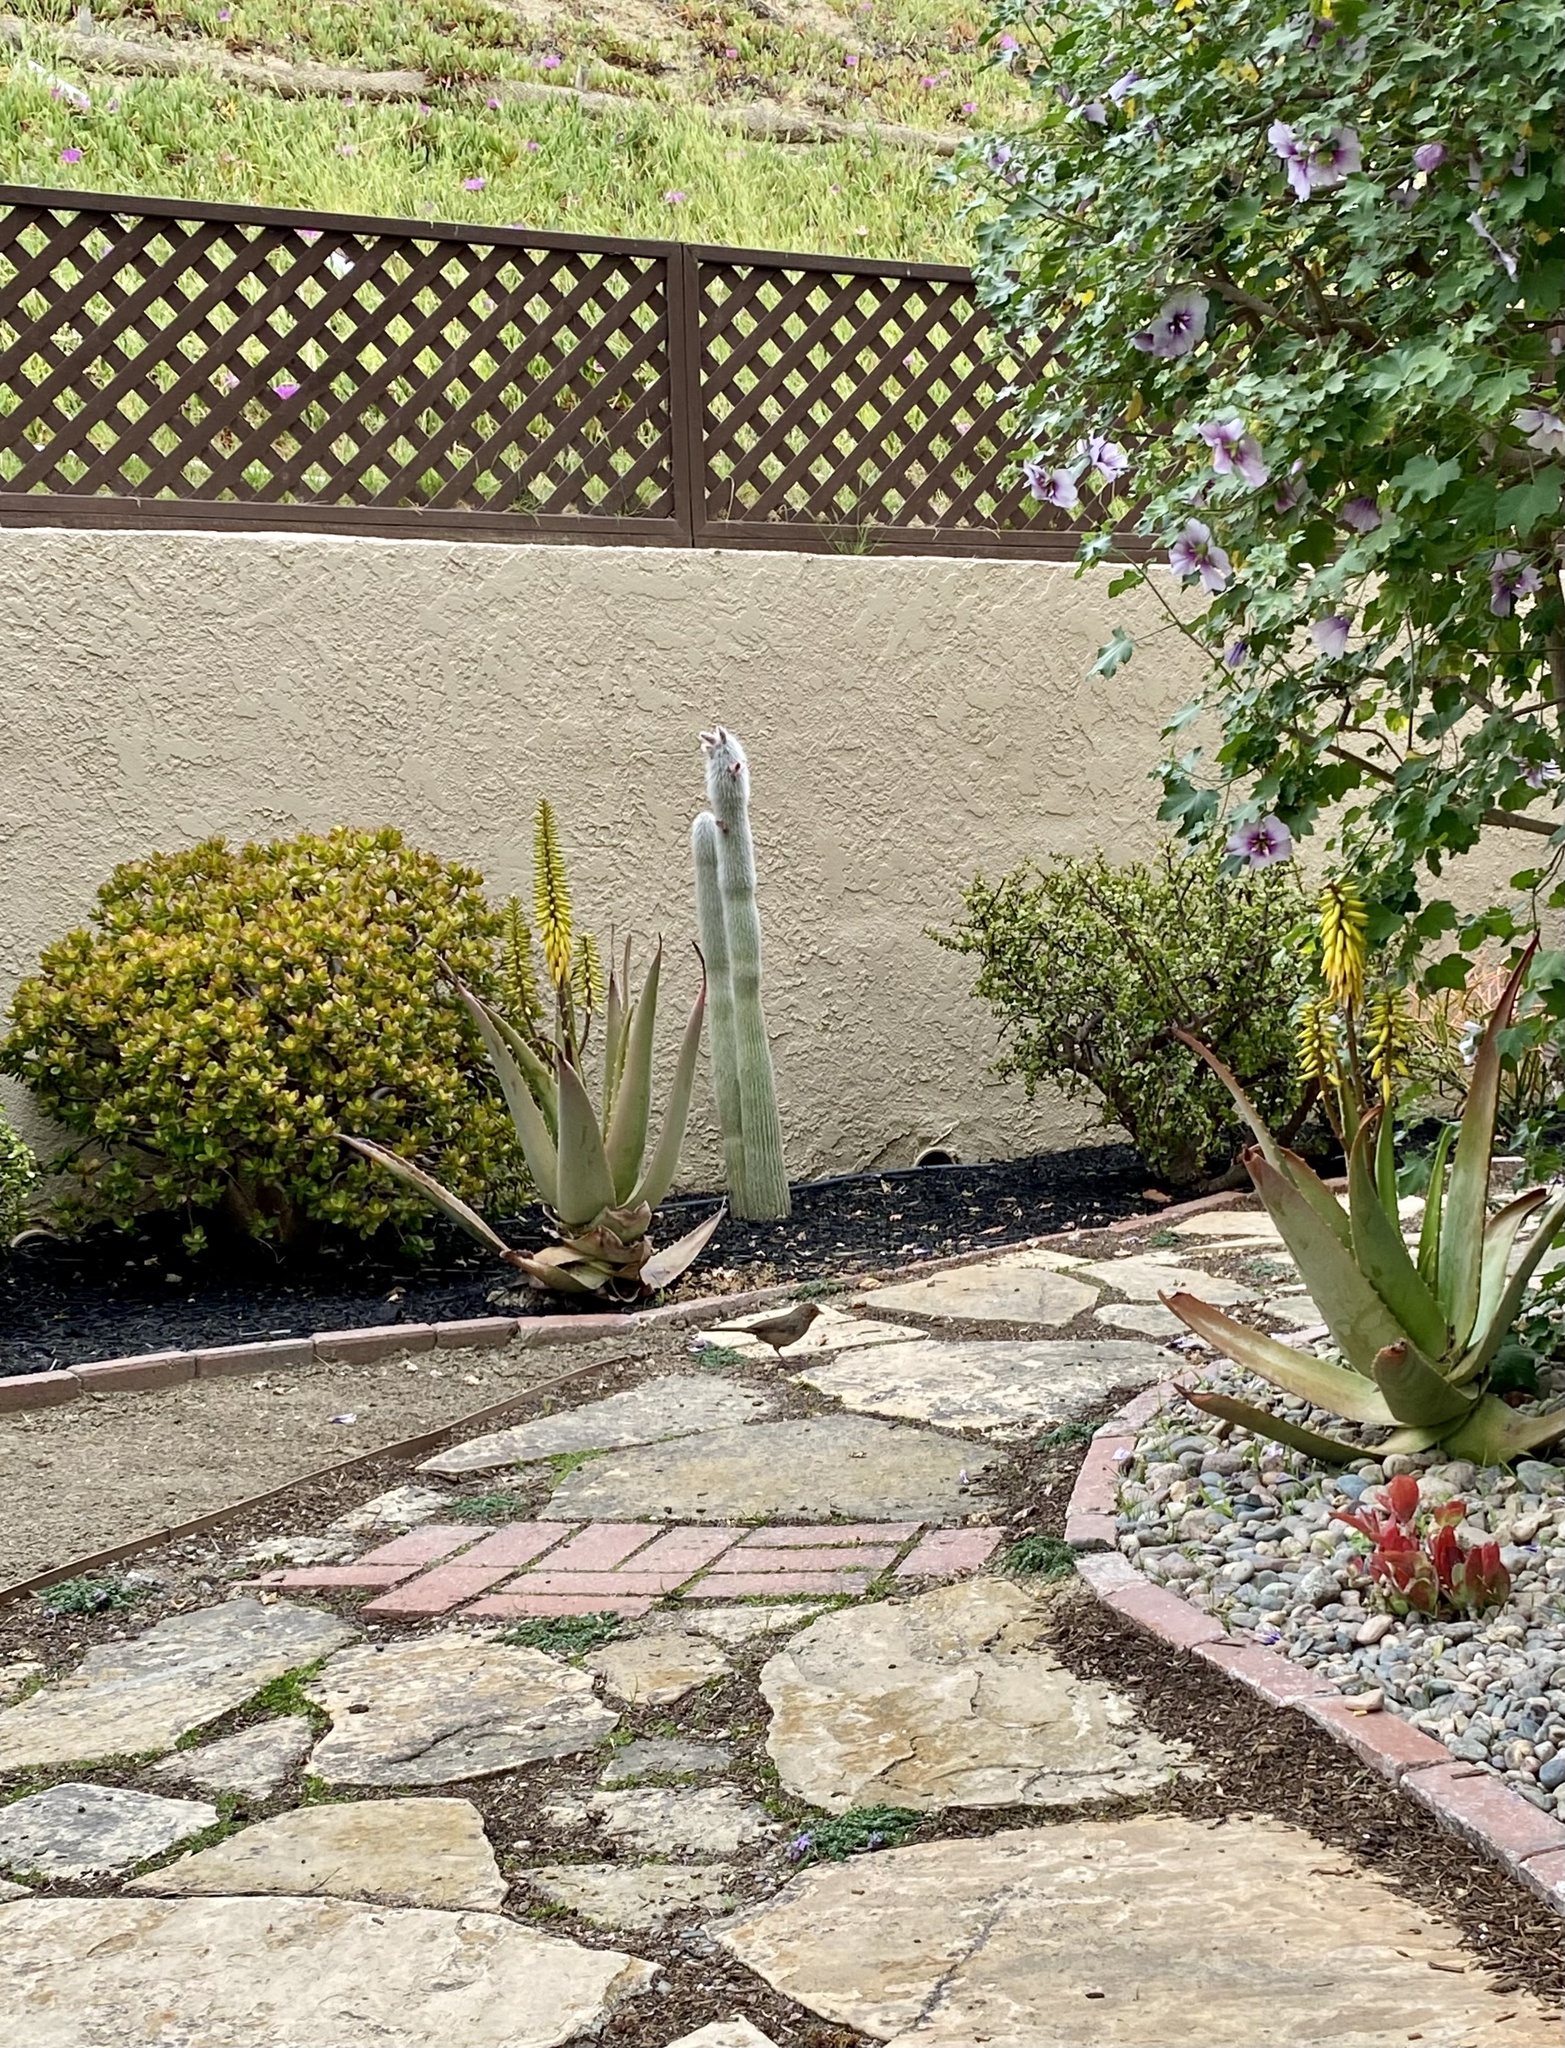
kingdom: Animalia
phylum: Chordata
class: Aves
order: Passeriformes
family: Passerellidae
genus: Melozone
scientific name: Melozone crissalis
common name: California towhee
